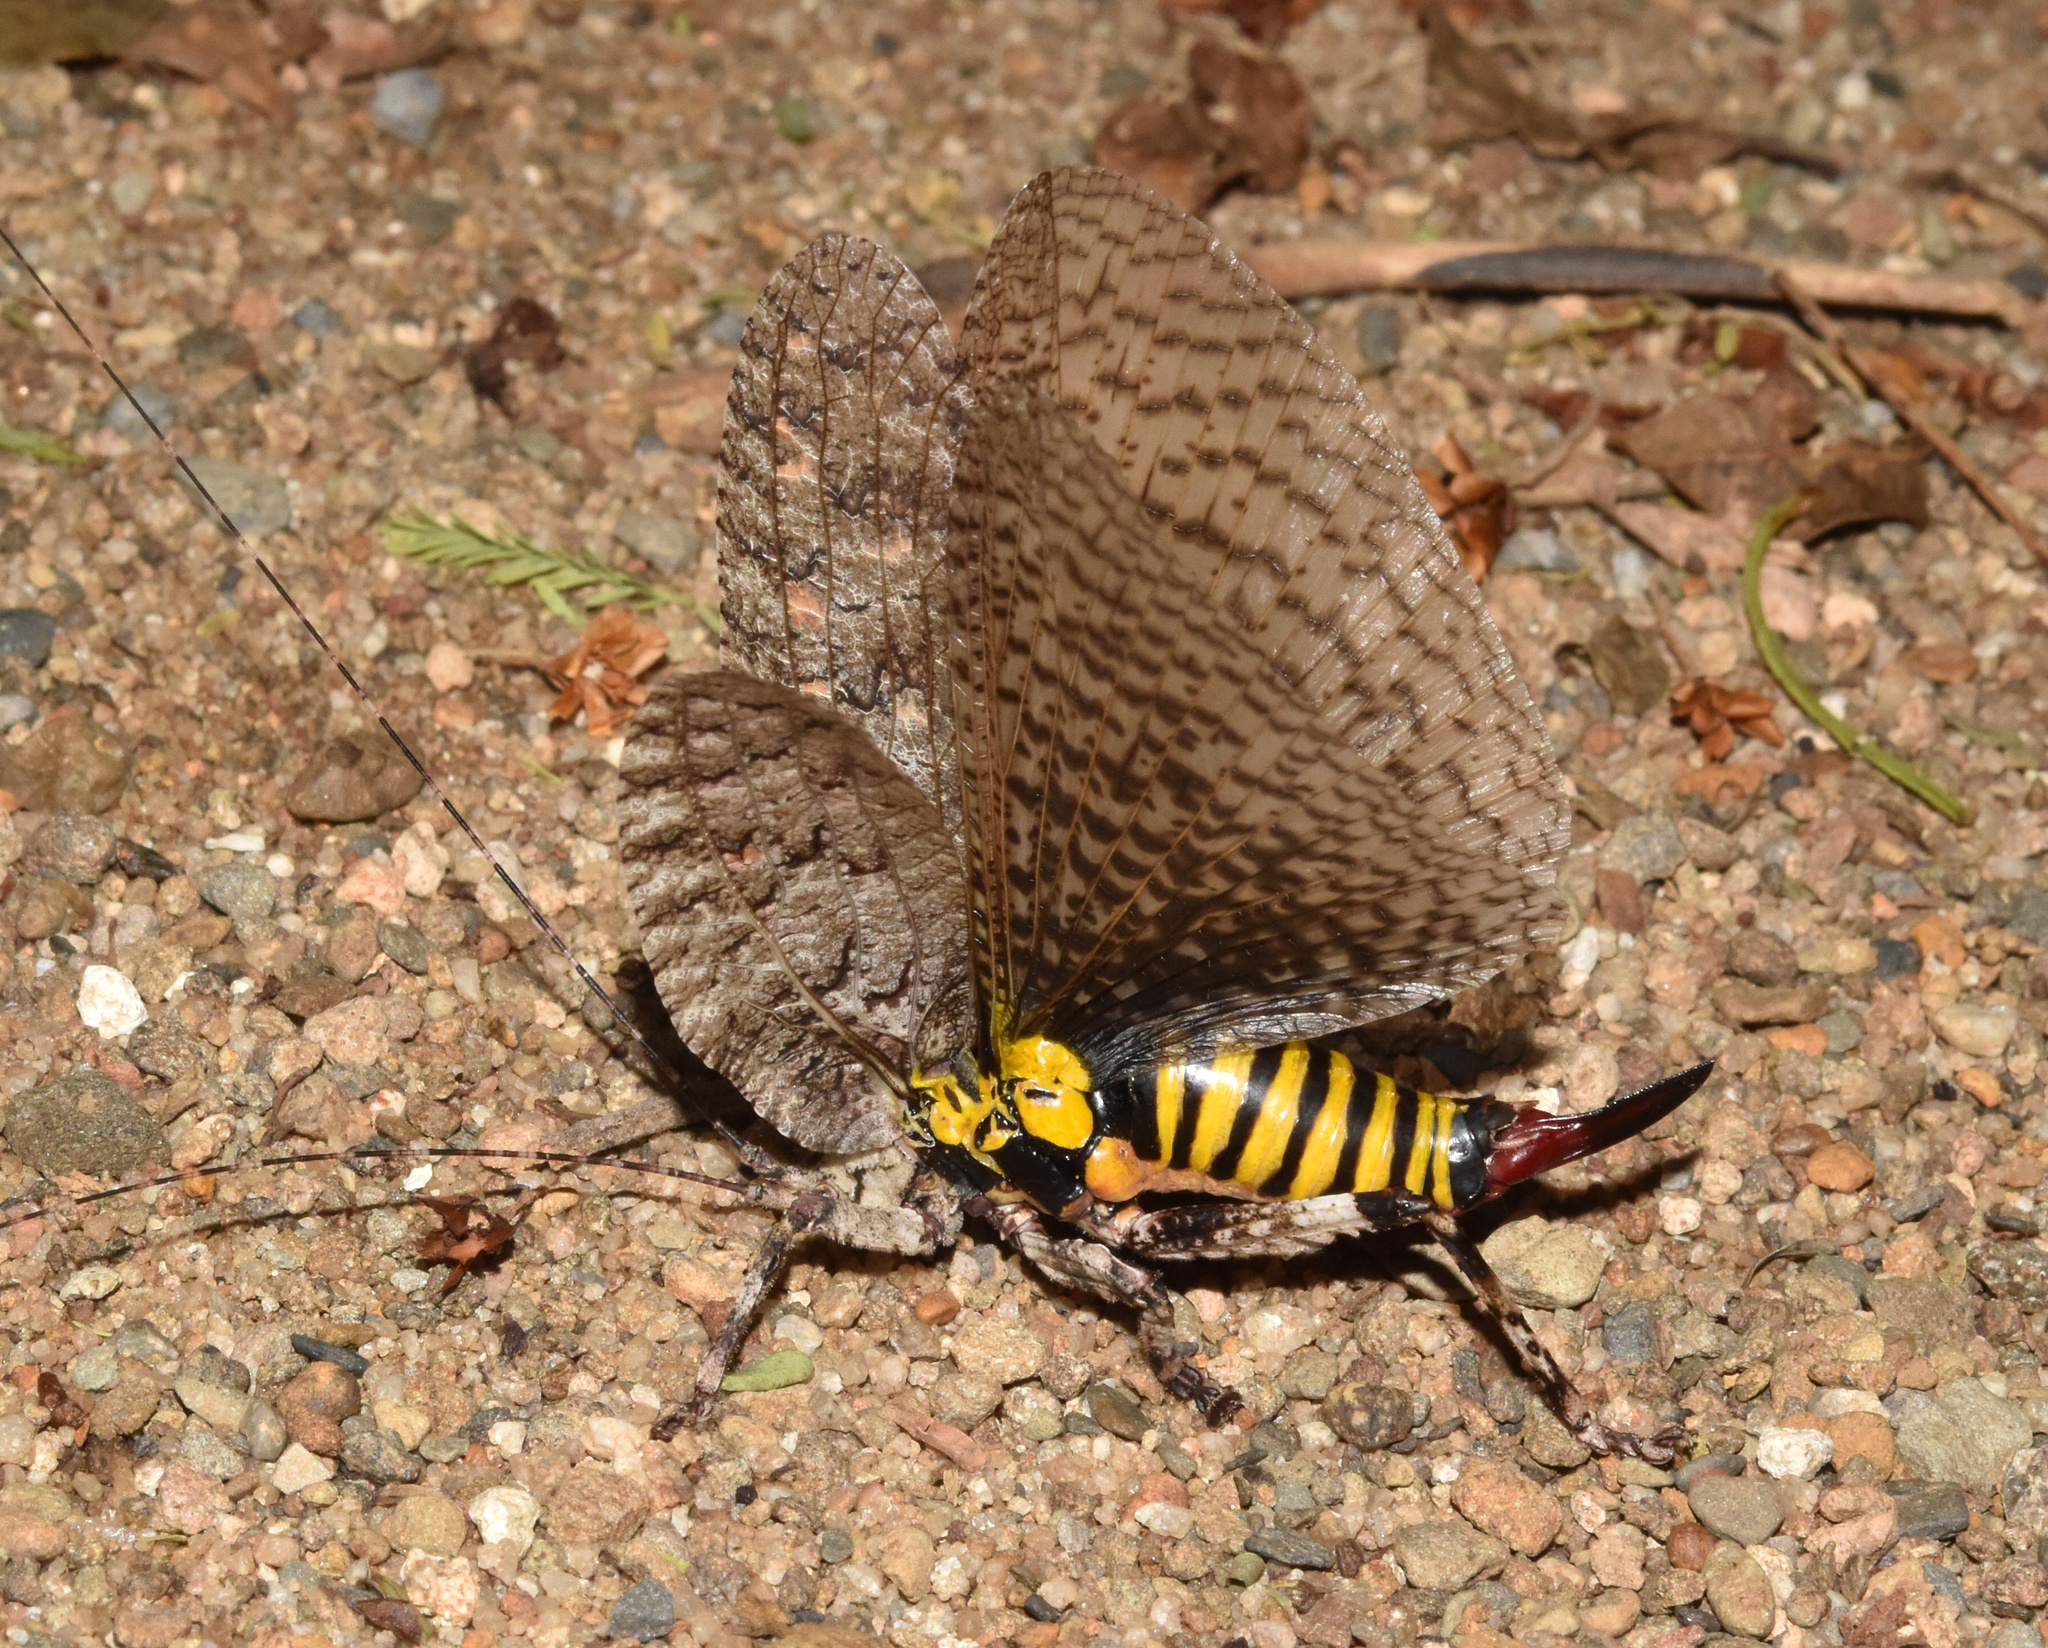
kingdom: Animalia
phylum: Arthropoda
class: Insecta
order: Orthoptera
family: Tettigoniidae
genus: Cymatomera
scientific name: Cymatomera denticollis
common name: Common bark katydid
